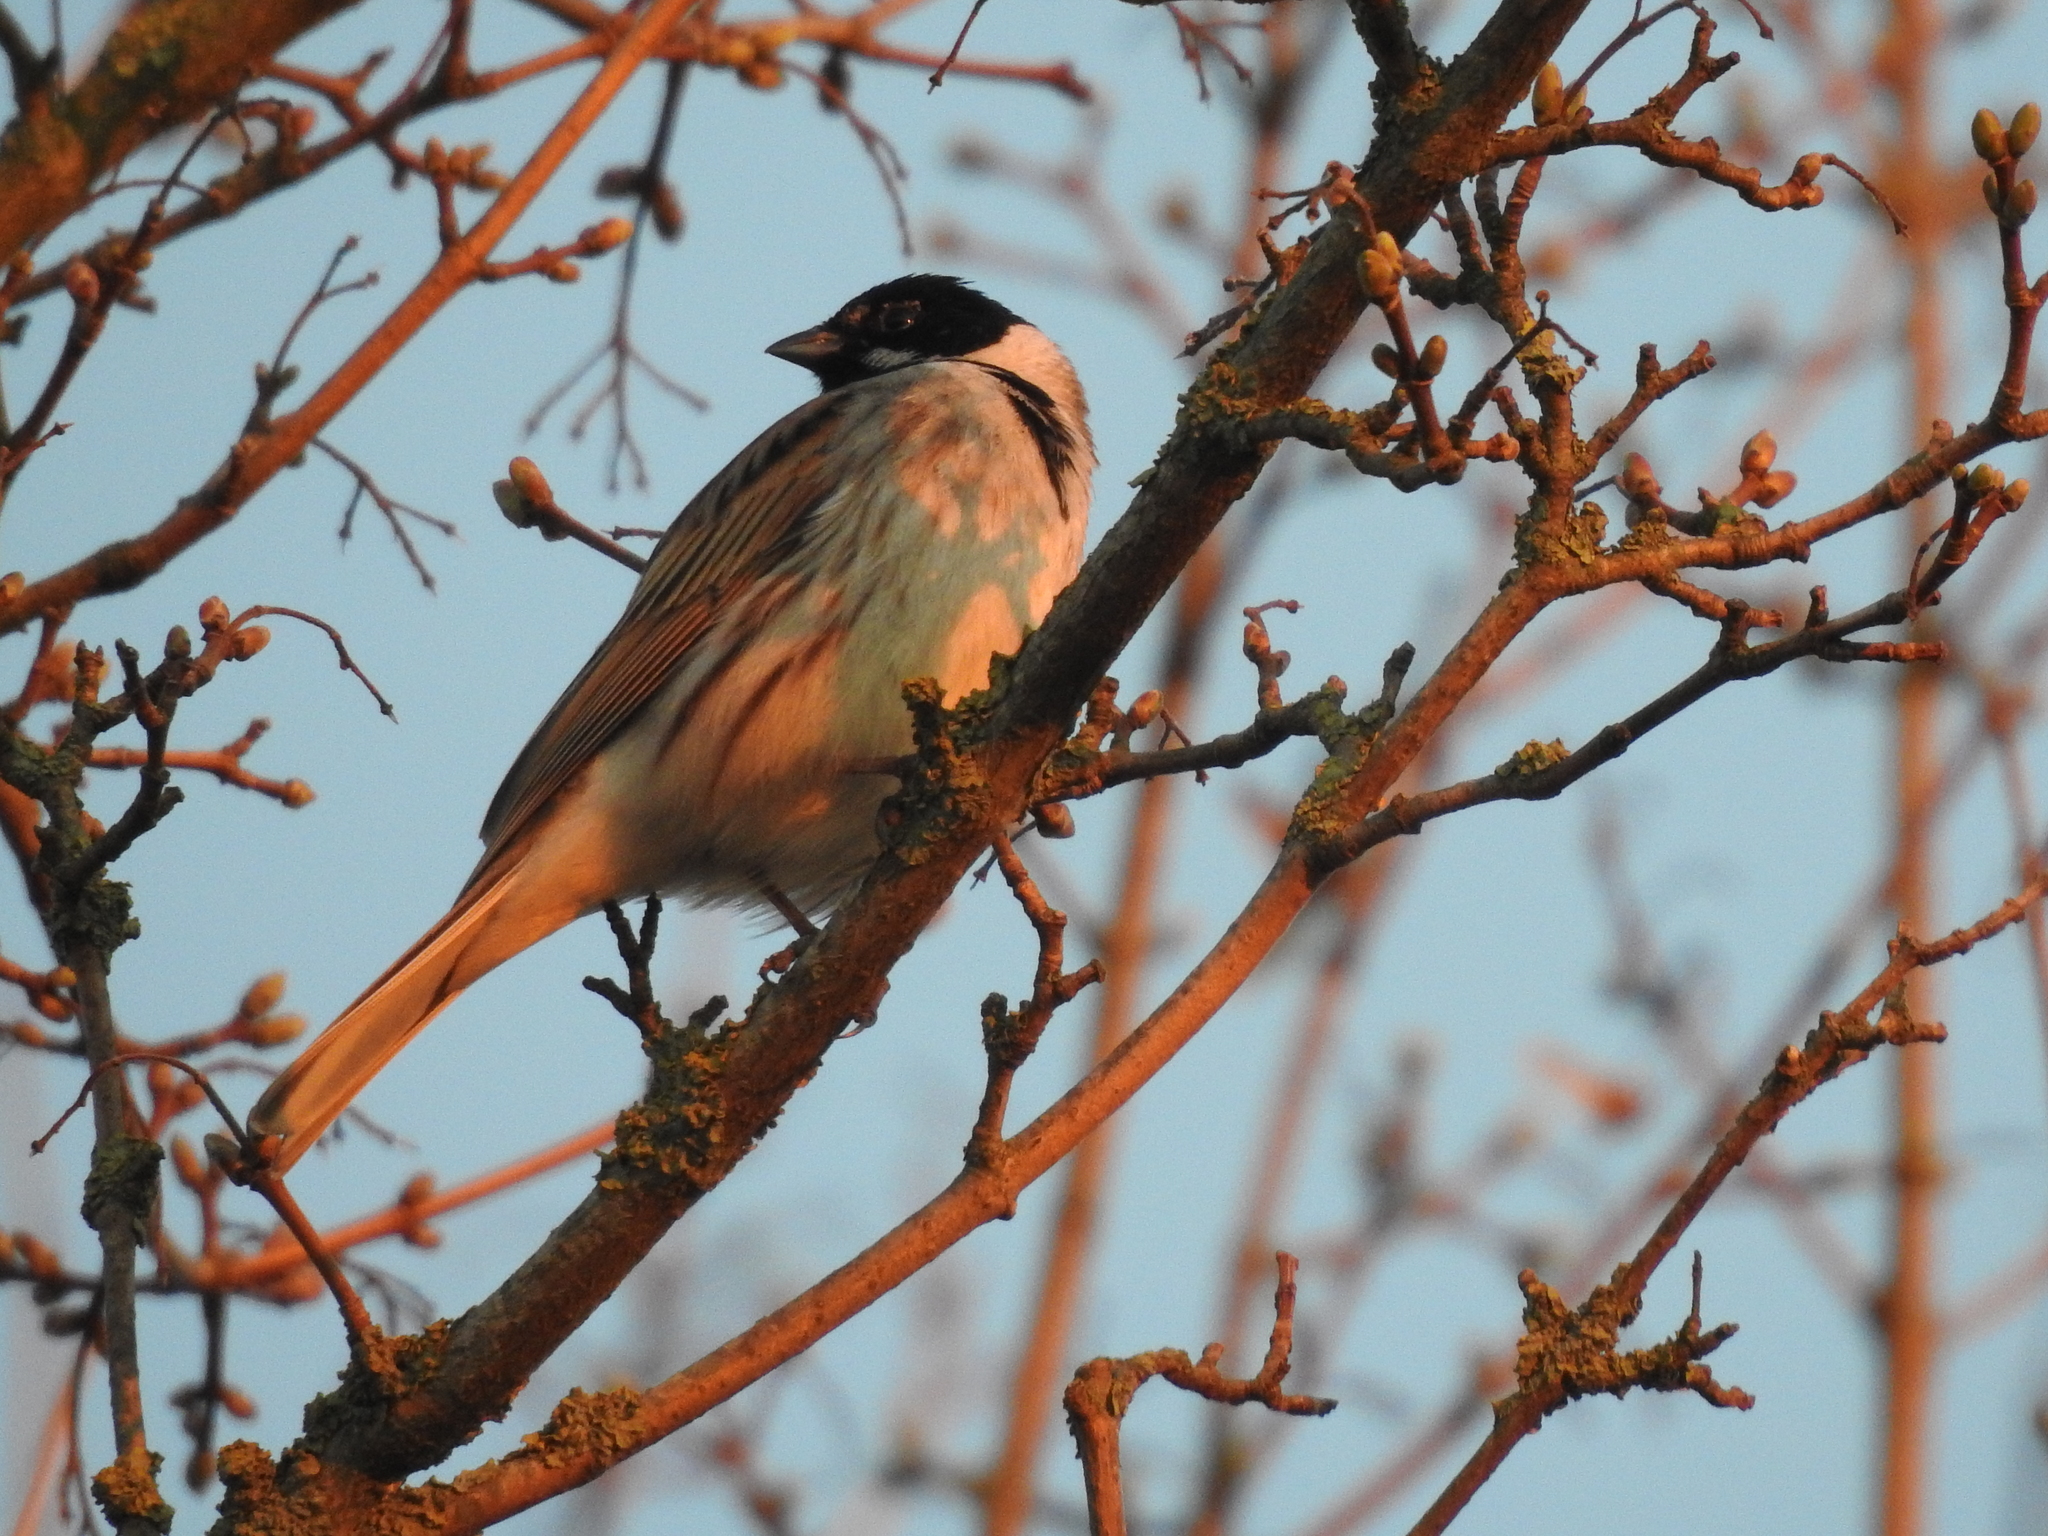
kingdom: Animalia
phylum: Chordata
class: Aves
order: Passeriformes
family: Emberizidae
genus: Emberiza
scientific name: Emberiza schoeniclus
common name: Reed bunting
